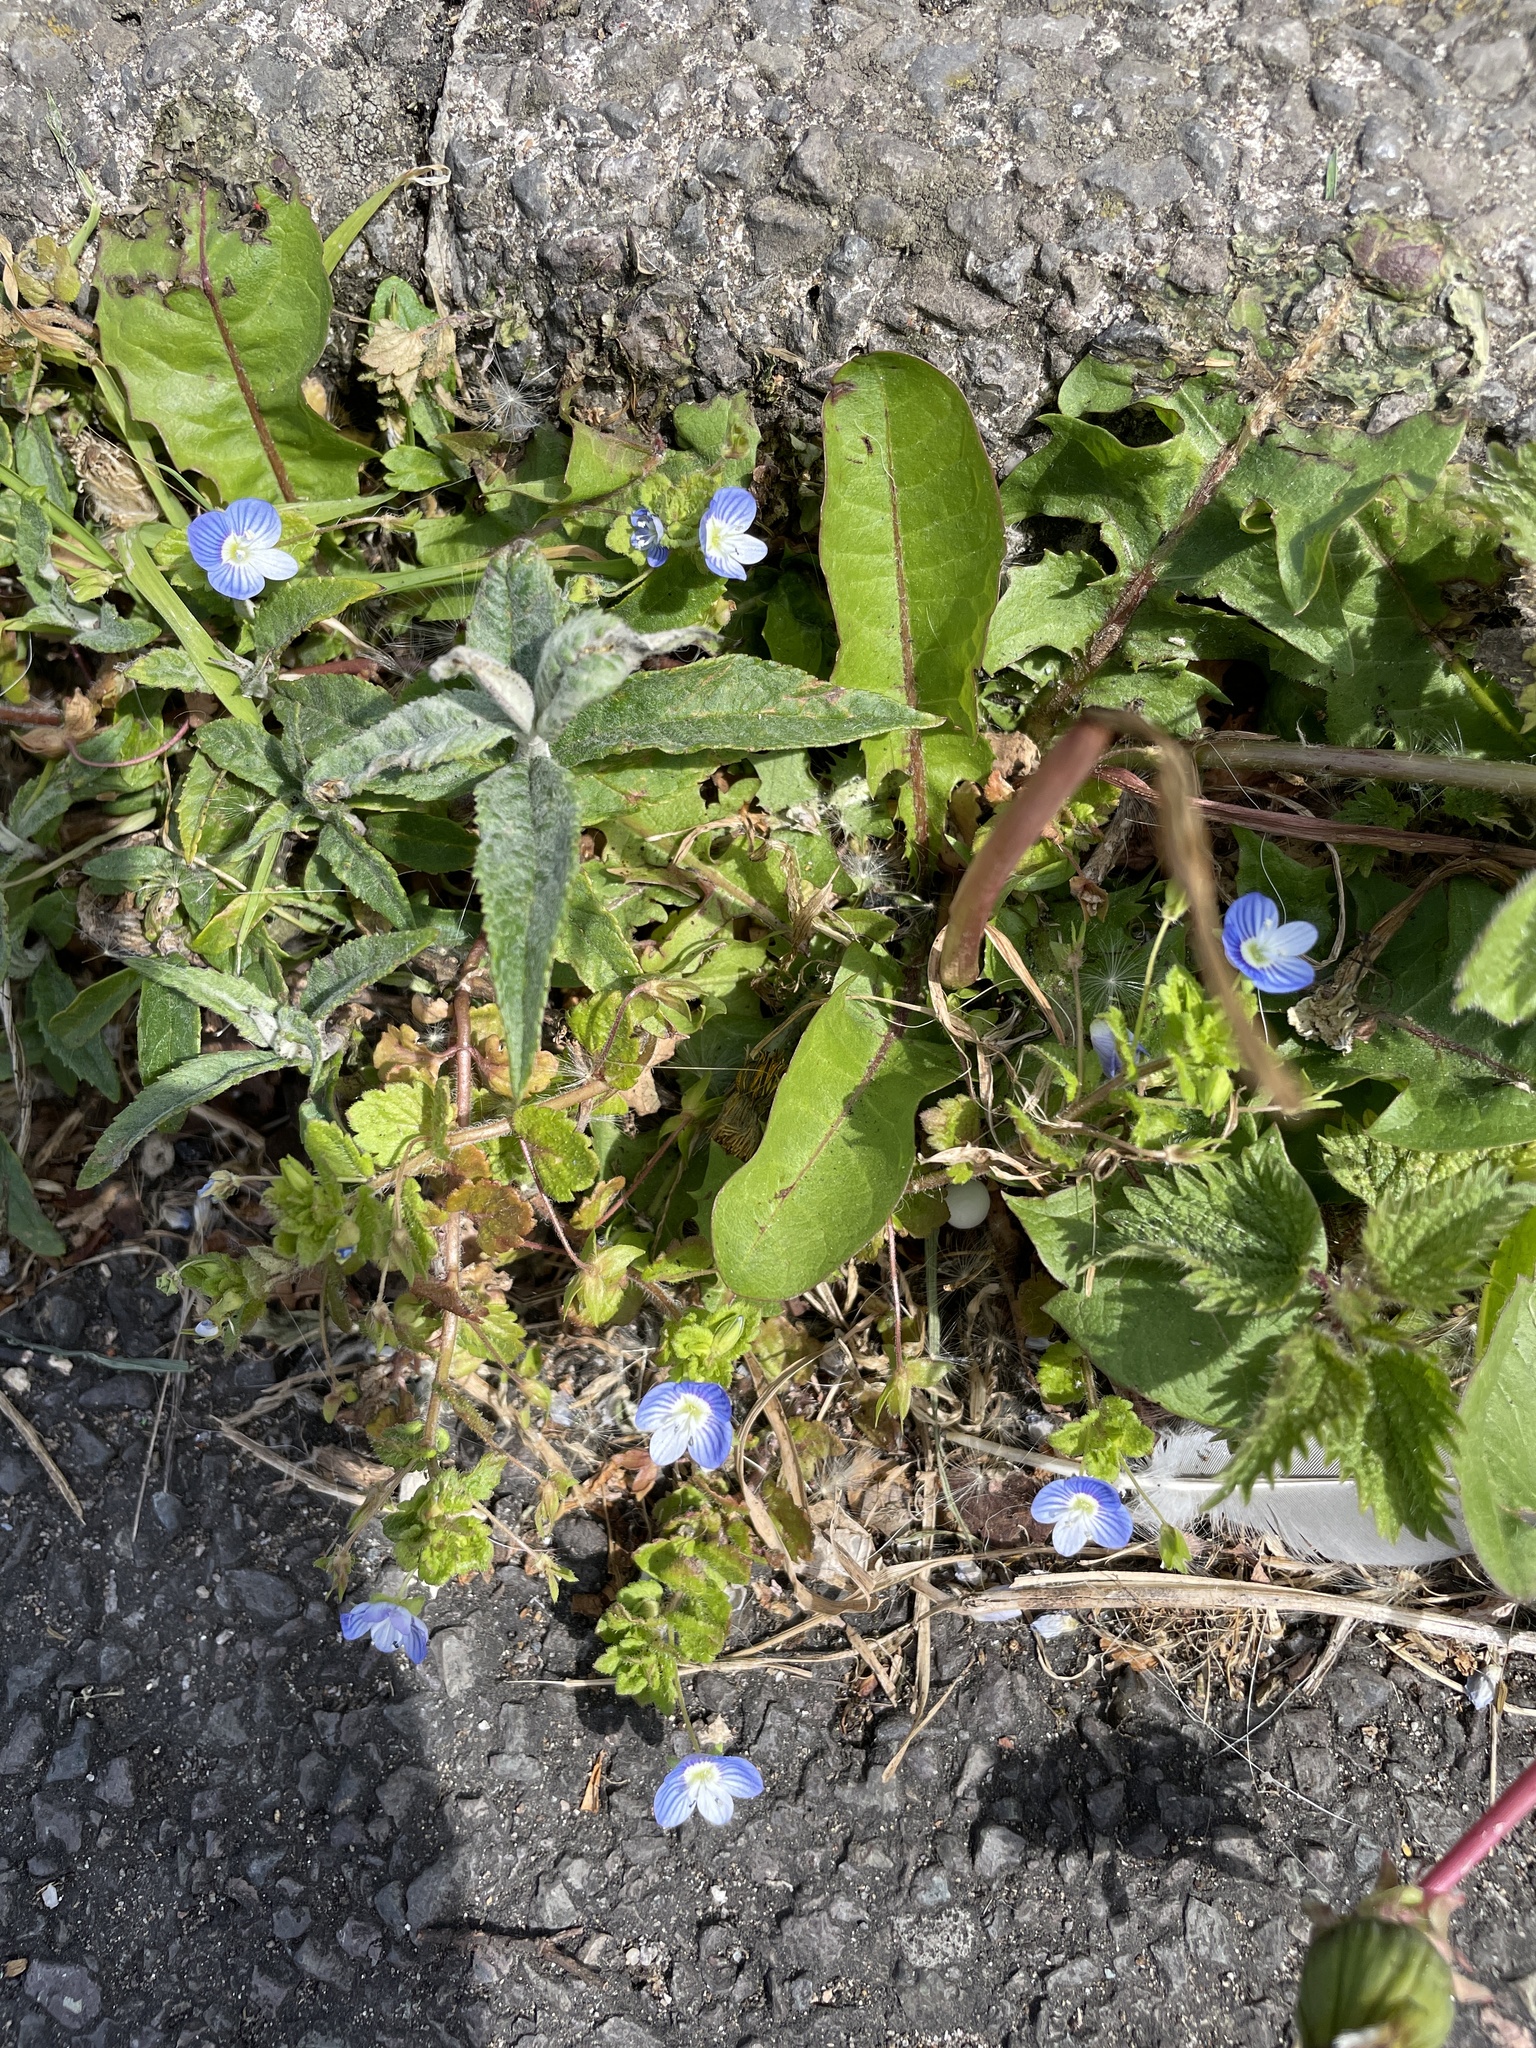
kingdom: Plantae
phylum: Tracheophyta
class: Magnoliopsida
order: Lamiales
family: Plantaginaceae
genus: Veronica
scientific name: Veronica persica
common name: Common field-speedwell
